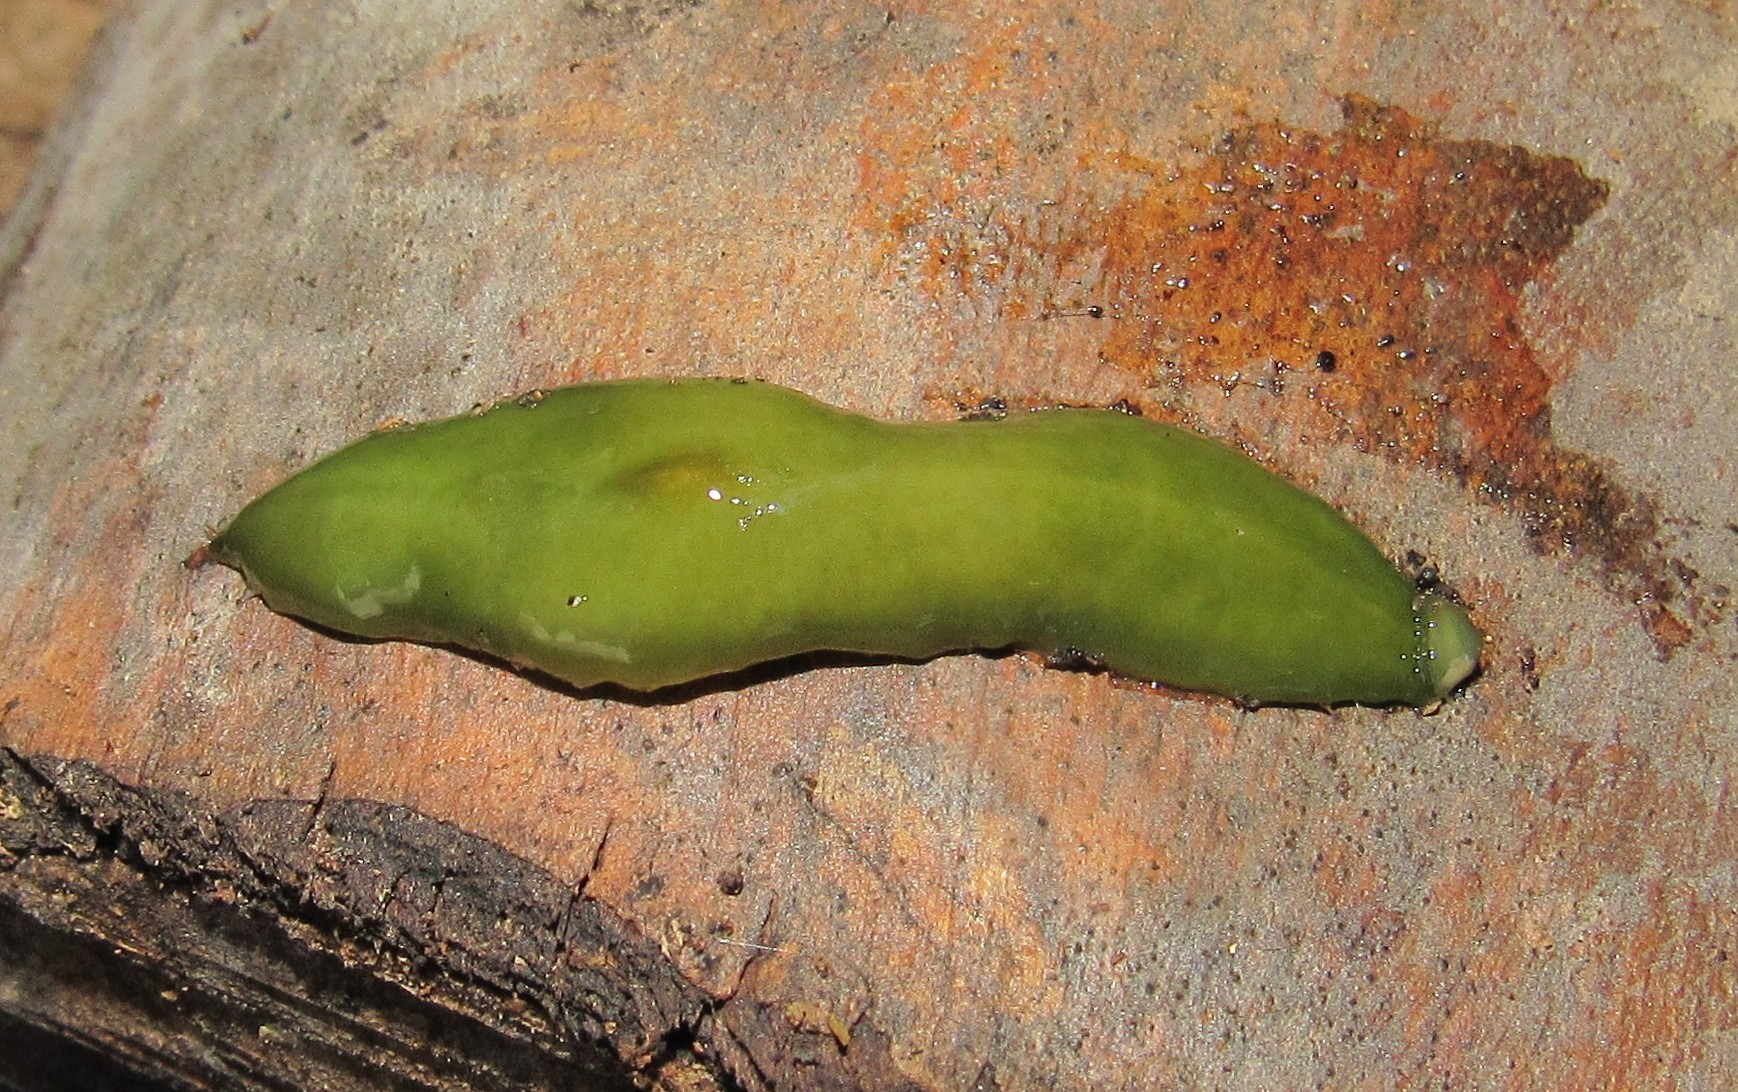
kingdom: Animalia
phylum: Platyhelminthes
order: Tricladida
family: Geoplanidae
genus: Obama
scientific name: Obama ladislavii
